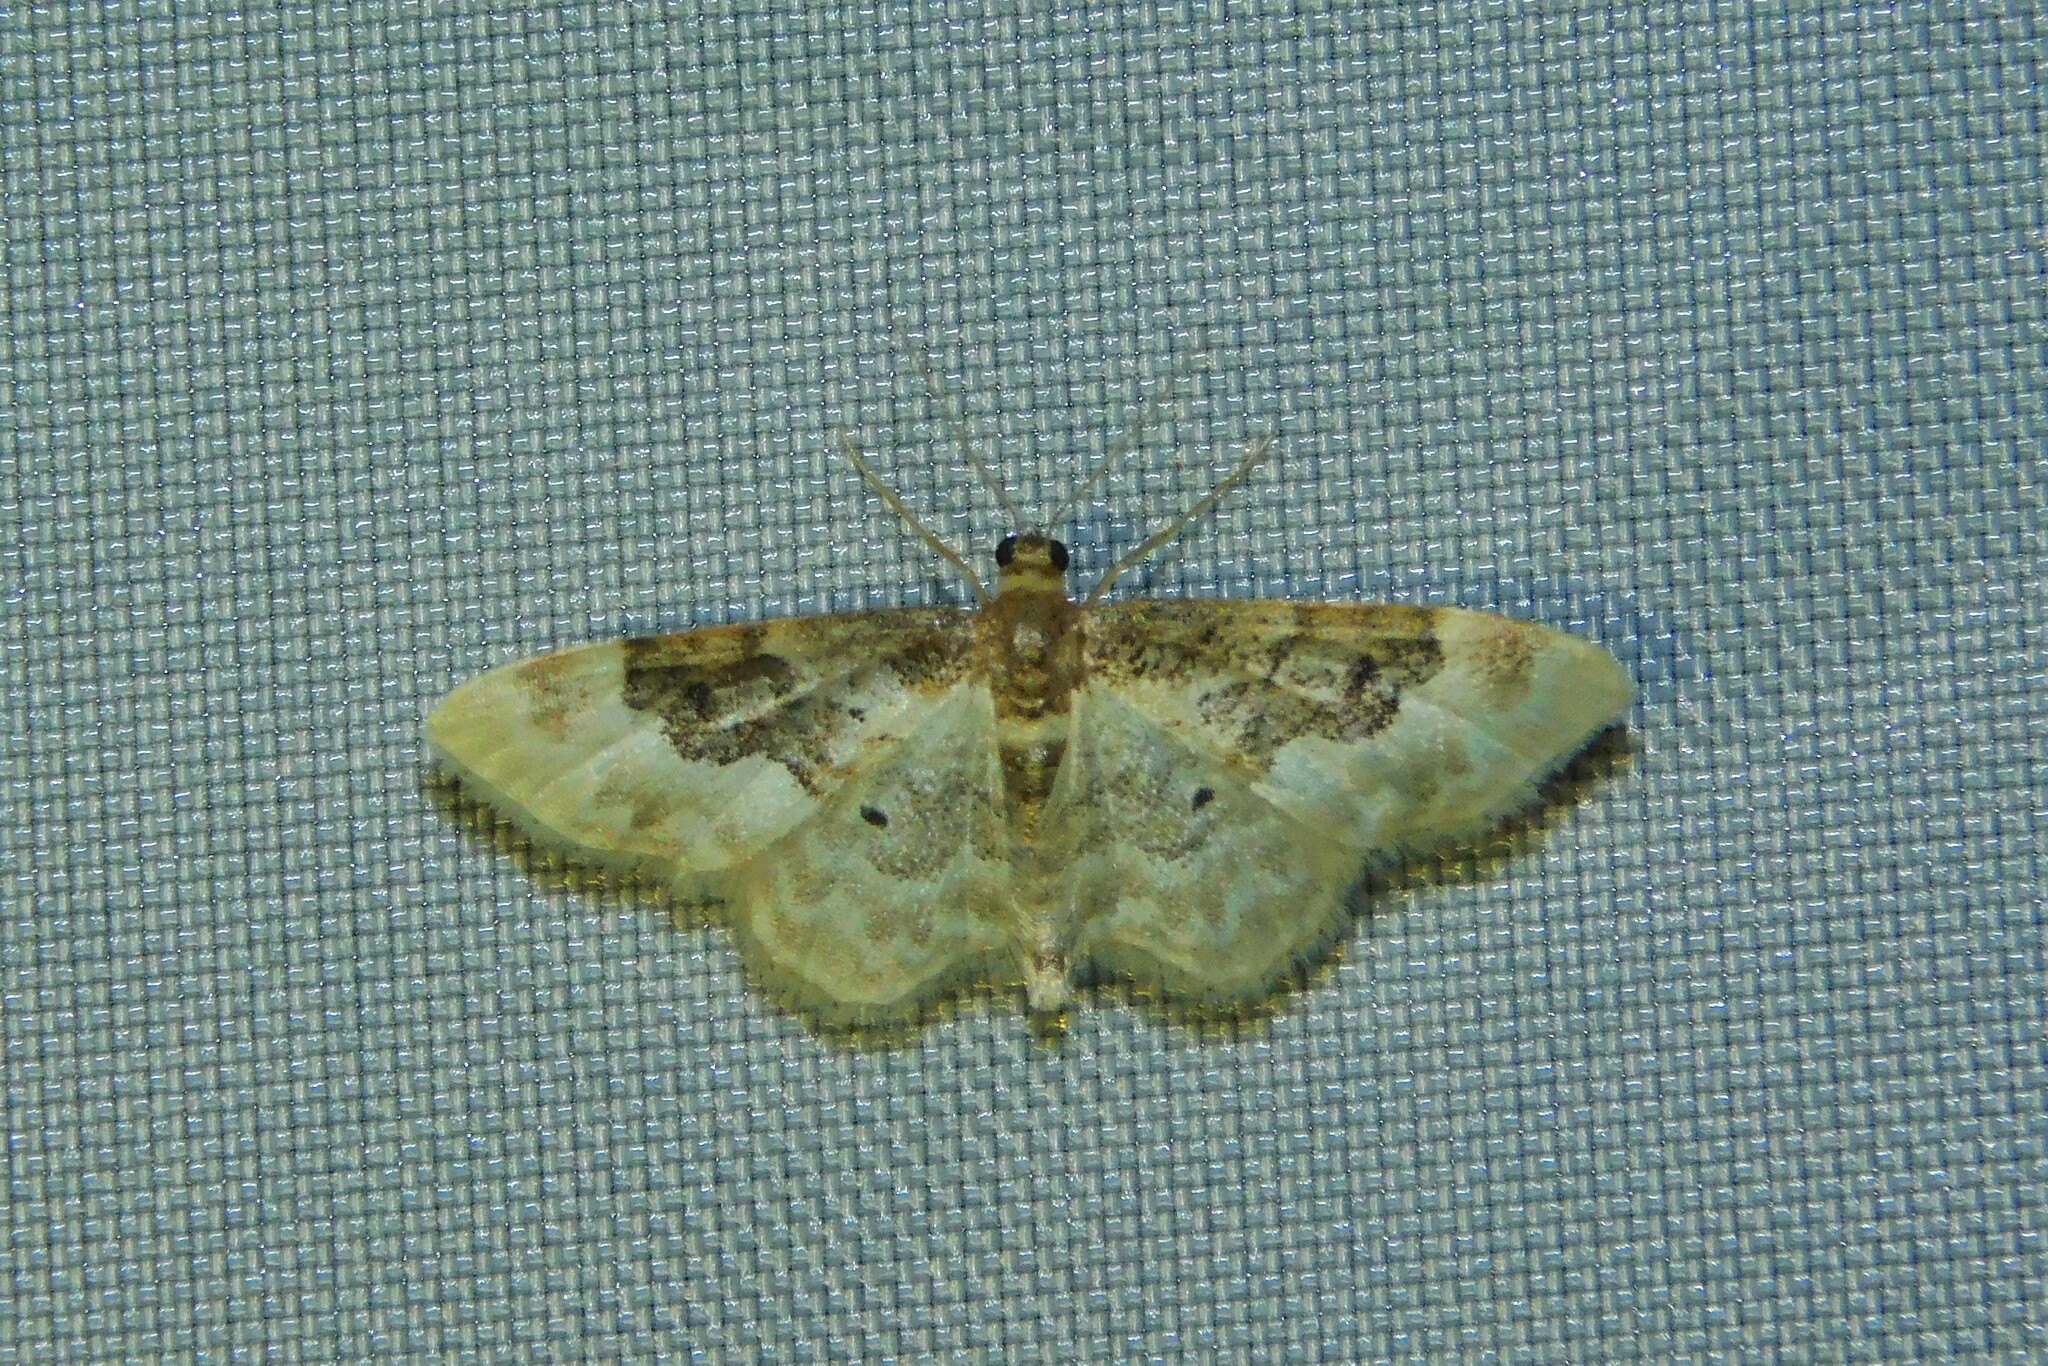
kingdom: Animalia
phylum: Arthropoda
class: Insecta
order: Lepidoptera
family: Geometridae
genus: Idaea
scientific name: Idaea rusticata
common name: Least carpet
